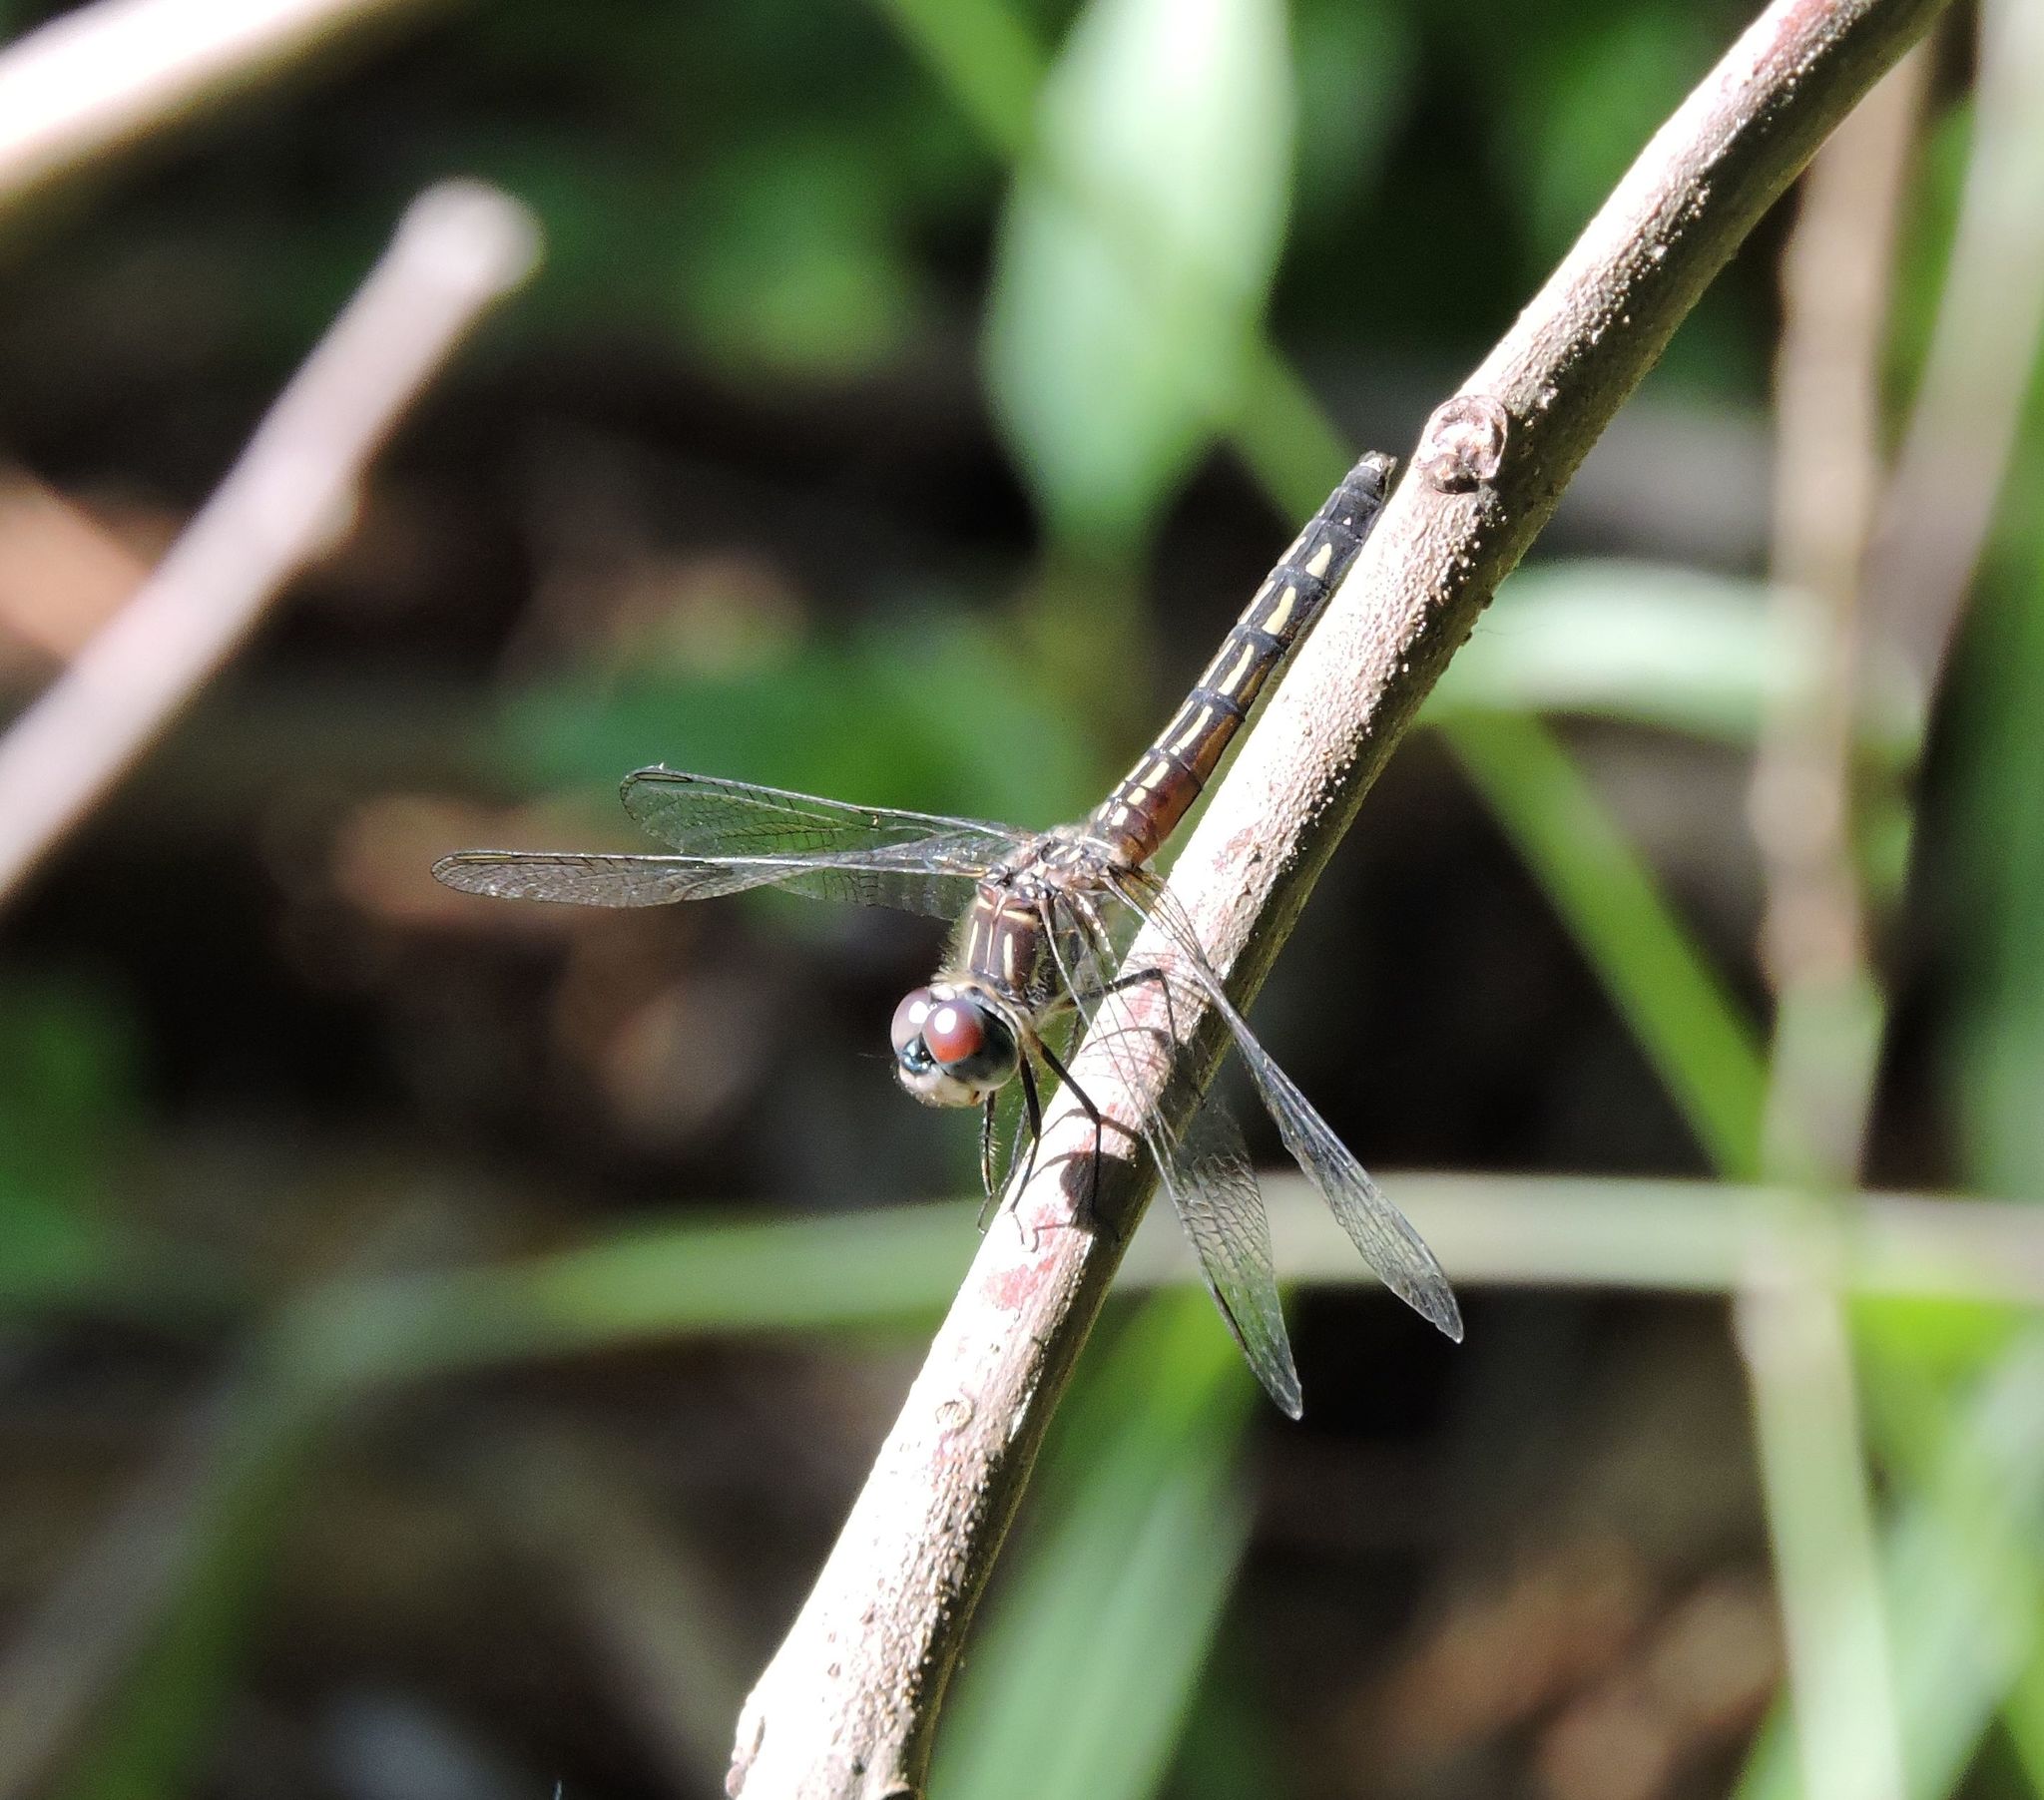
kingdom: Animalia
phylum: Arthropoda
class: Insecta
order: Odonata
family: Libellulidae
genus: Pachydiplax
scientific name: Pachydiplax longipennis
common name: Blue dasher
